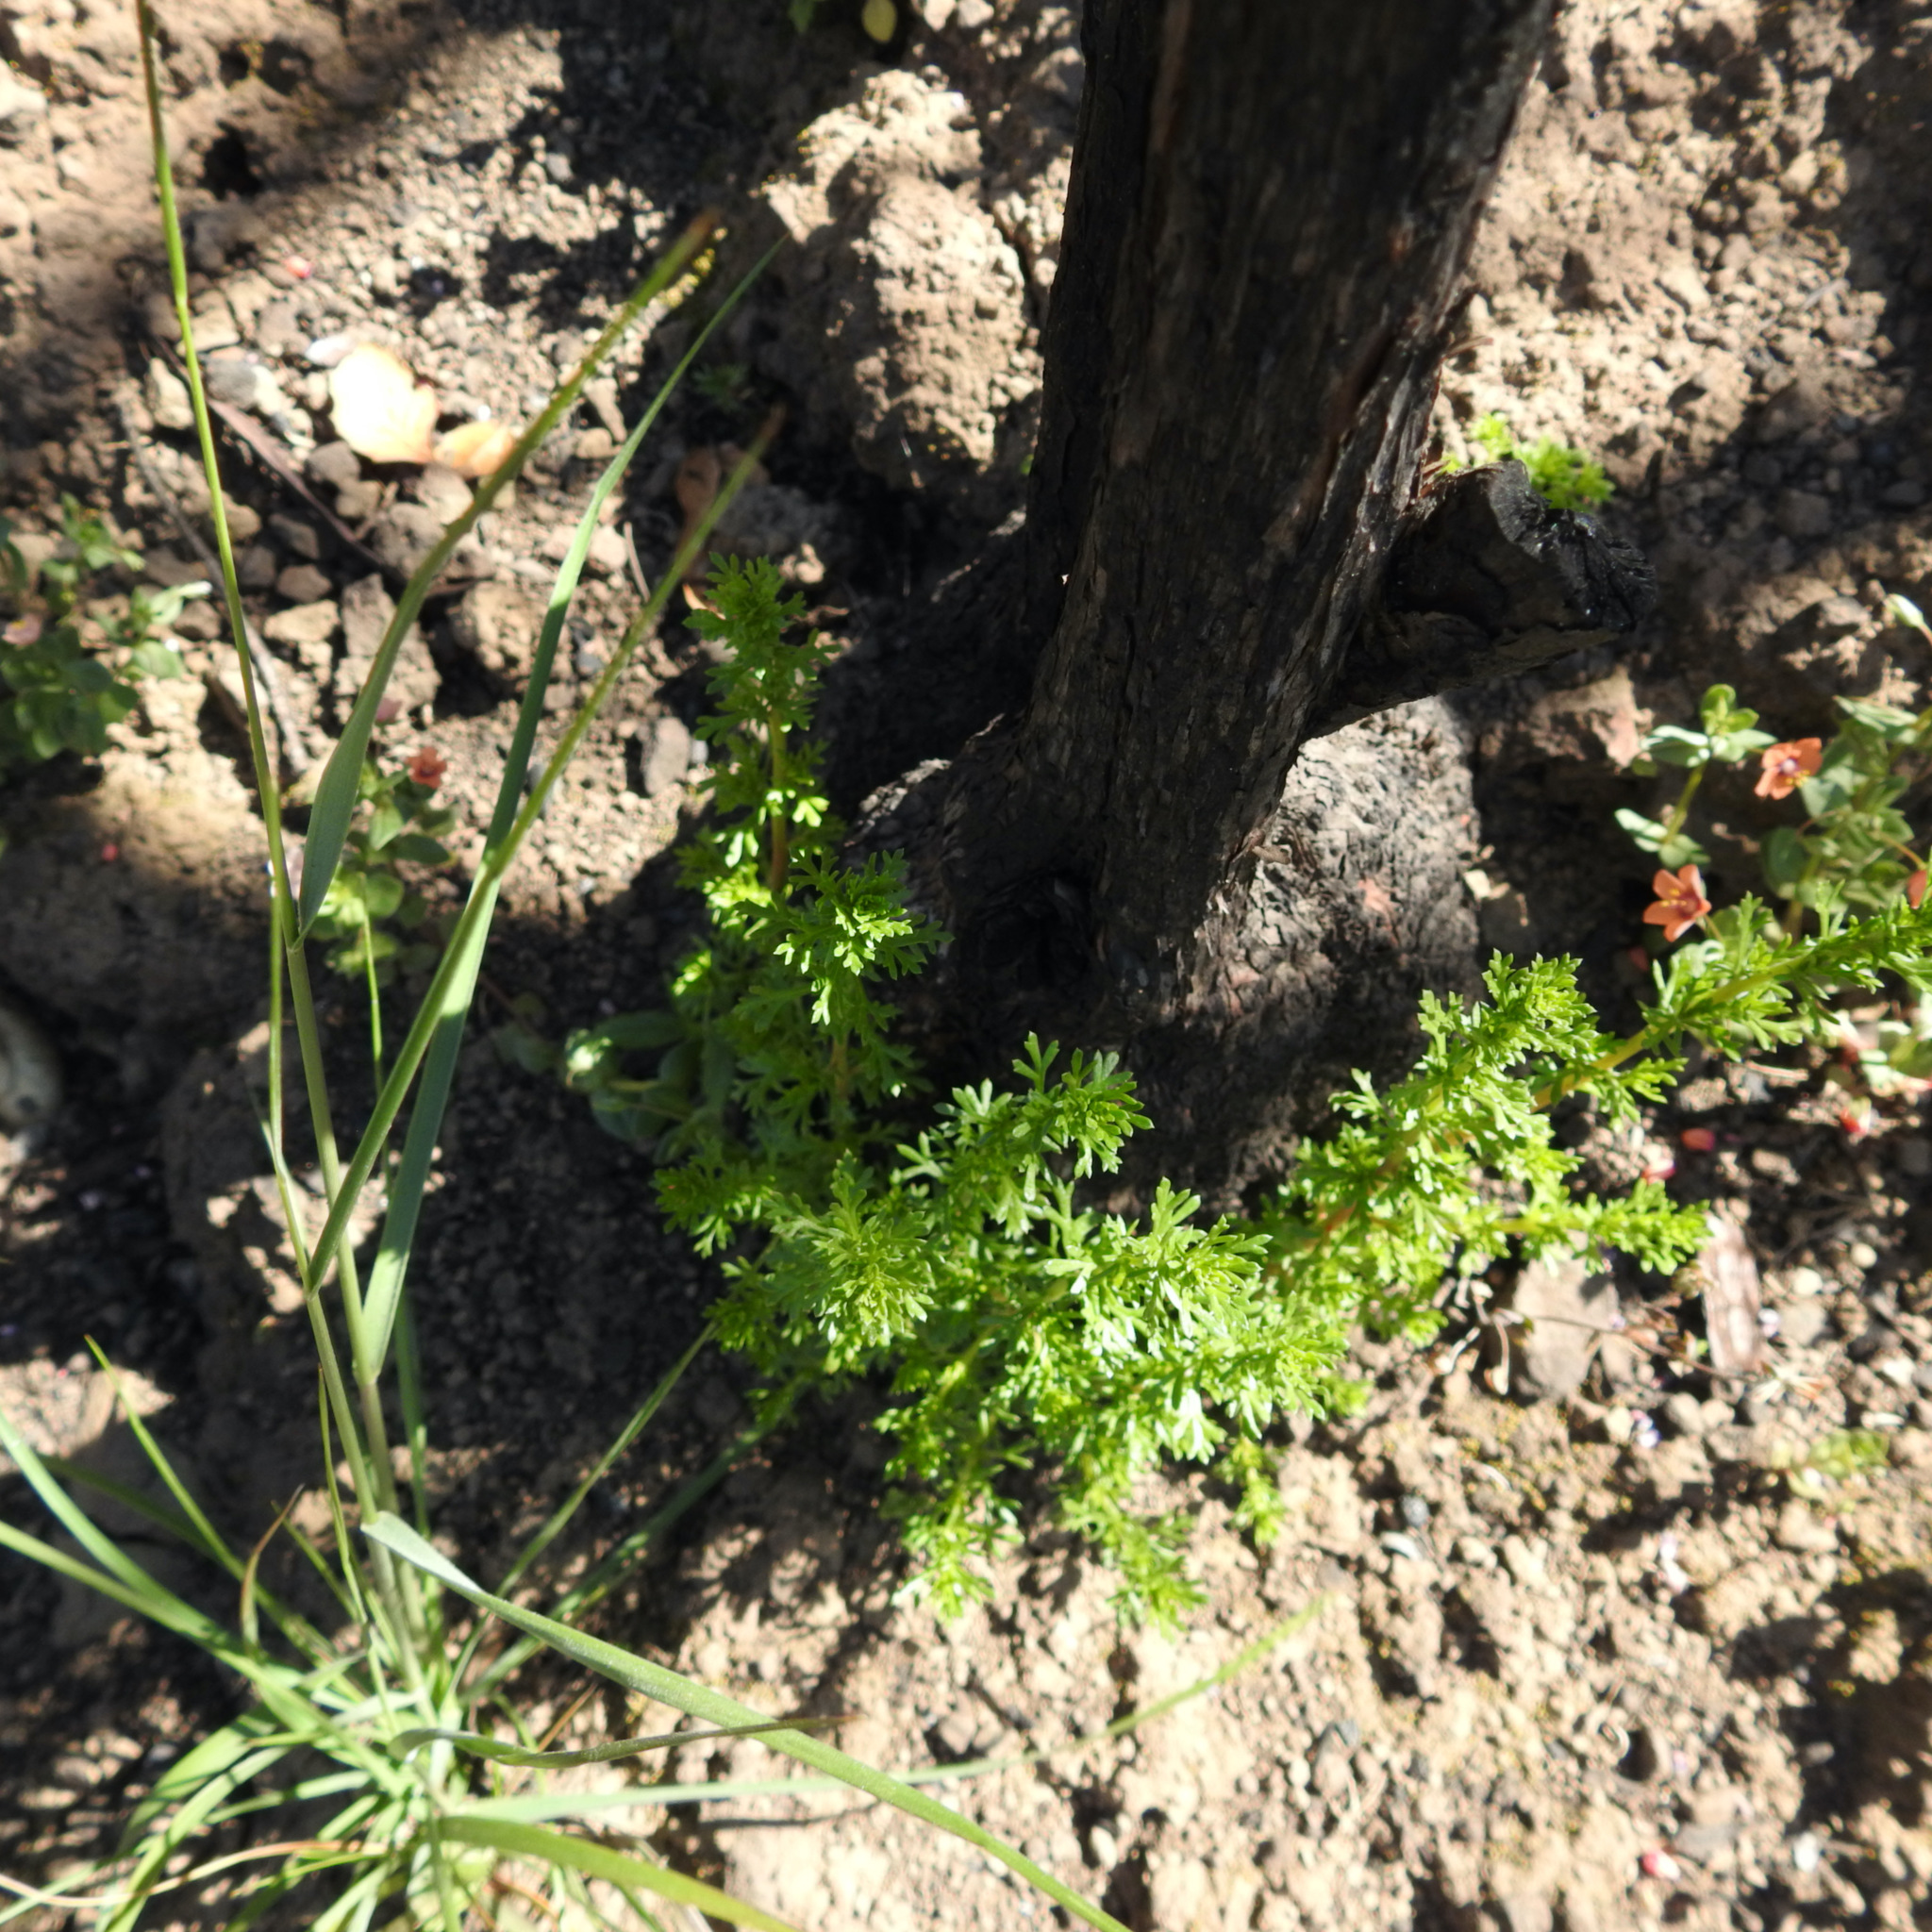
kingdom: Plantae
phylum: Tracheophyta
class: Magnoliopsida
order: Rosales
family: Rosaceae
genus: Adenostoma
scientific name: Adenostoma fasciculatum
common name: Chamise
